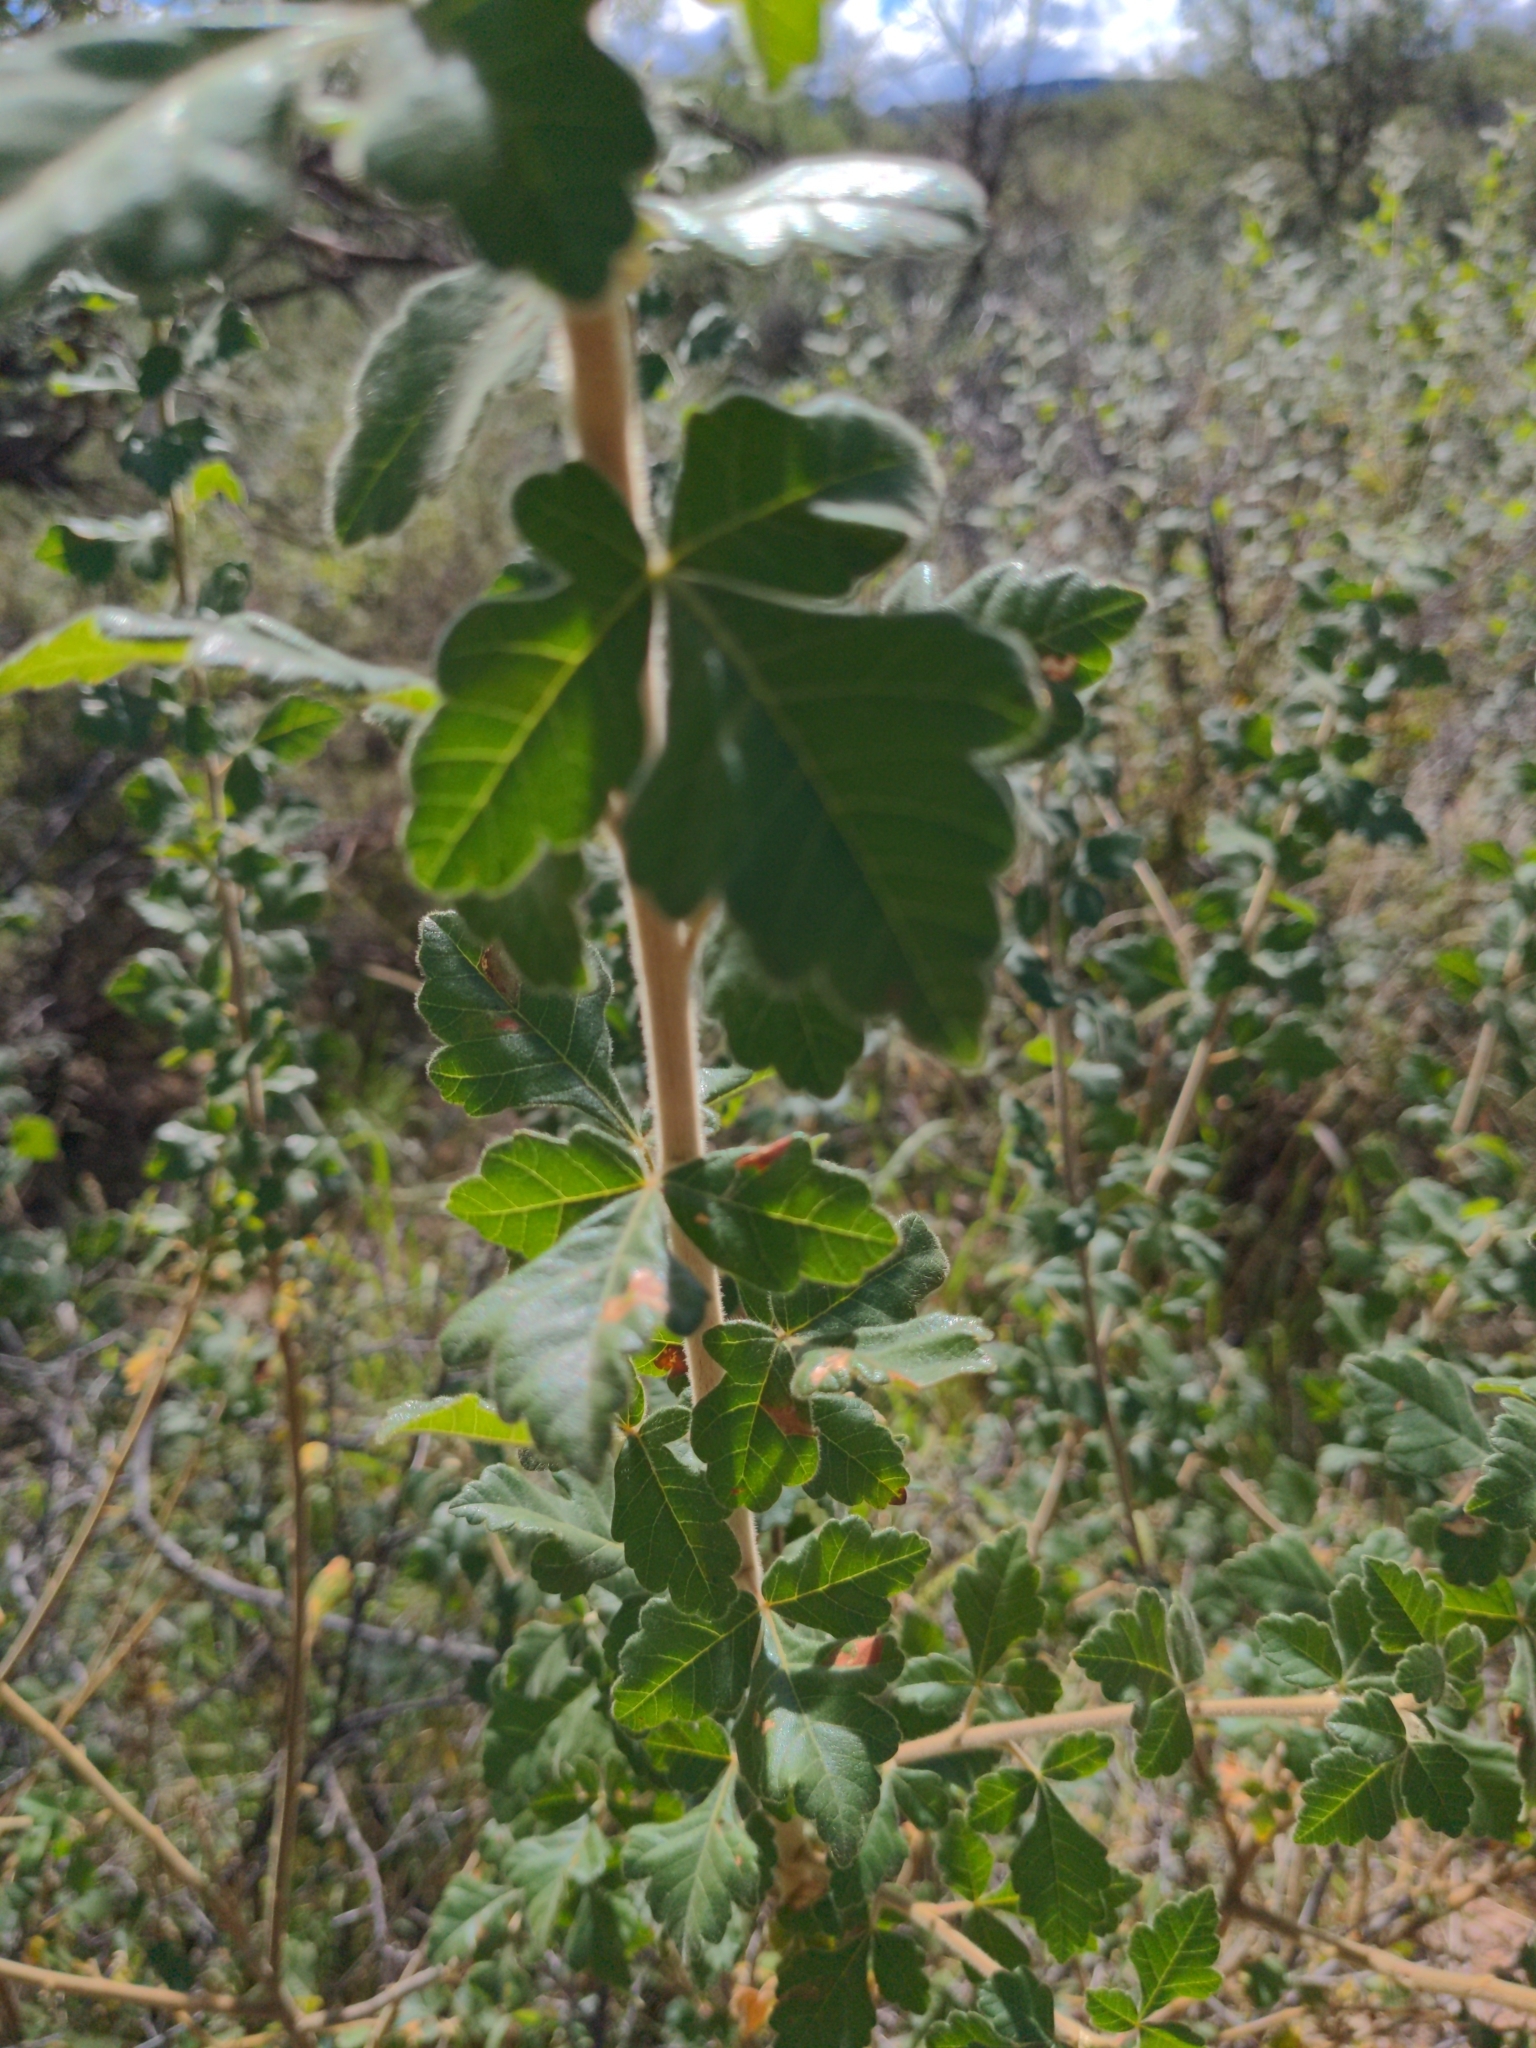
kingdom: Plantae
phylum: Tracheophyta
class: Magnoliopsida
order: Sapindales
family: Anacardiaceae
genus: Rhus
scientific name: Rhus trilobata
